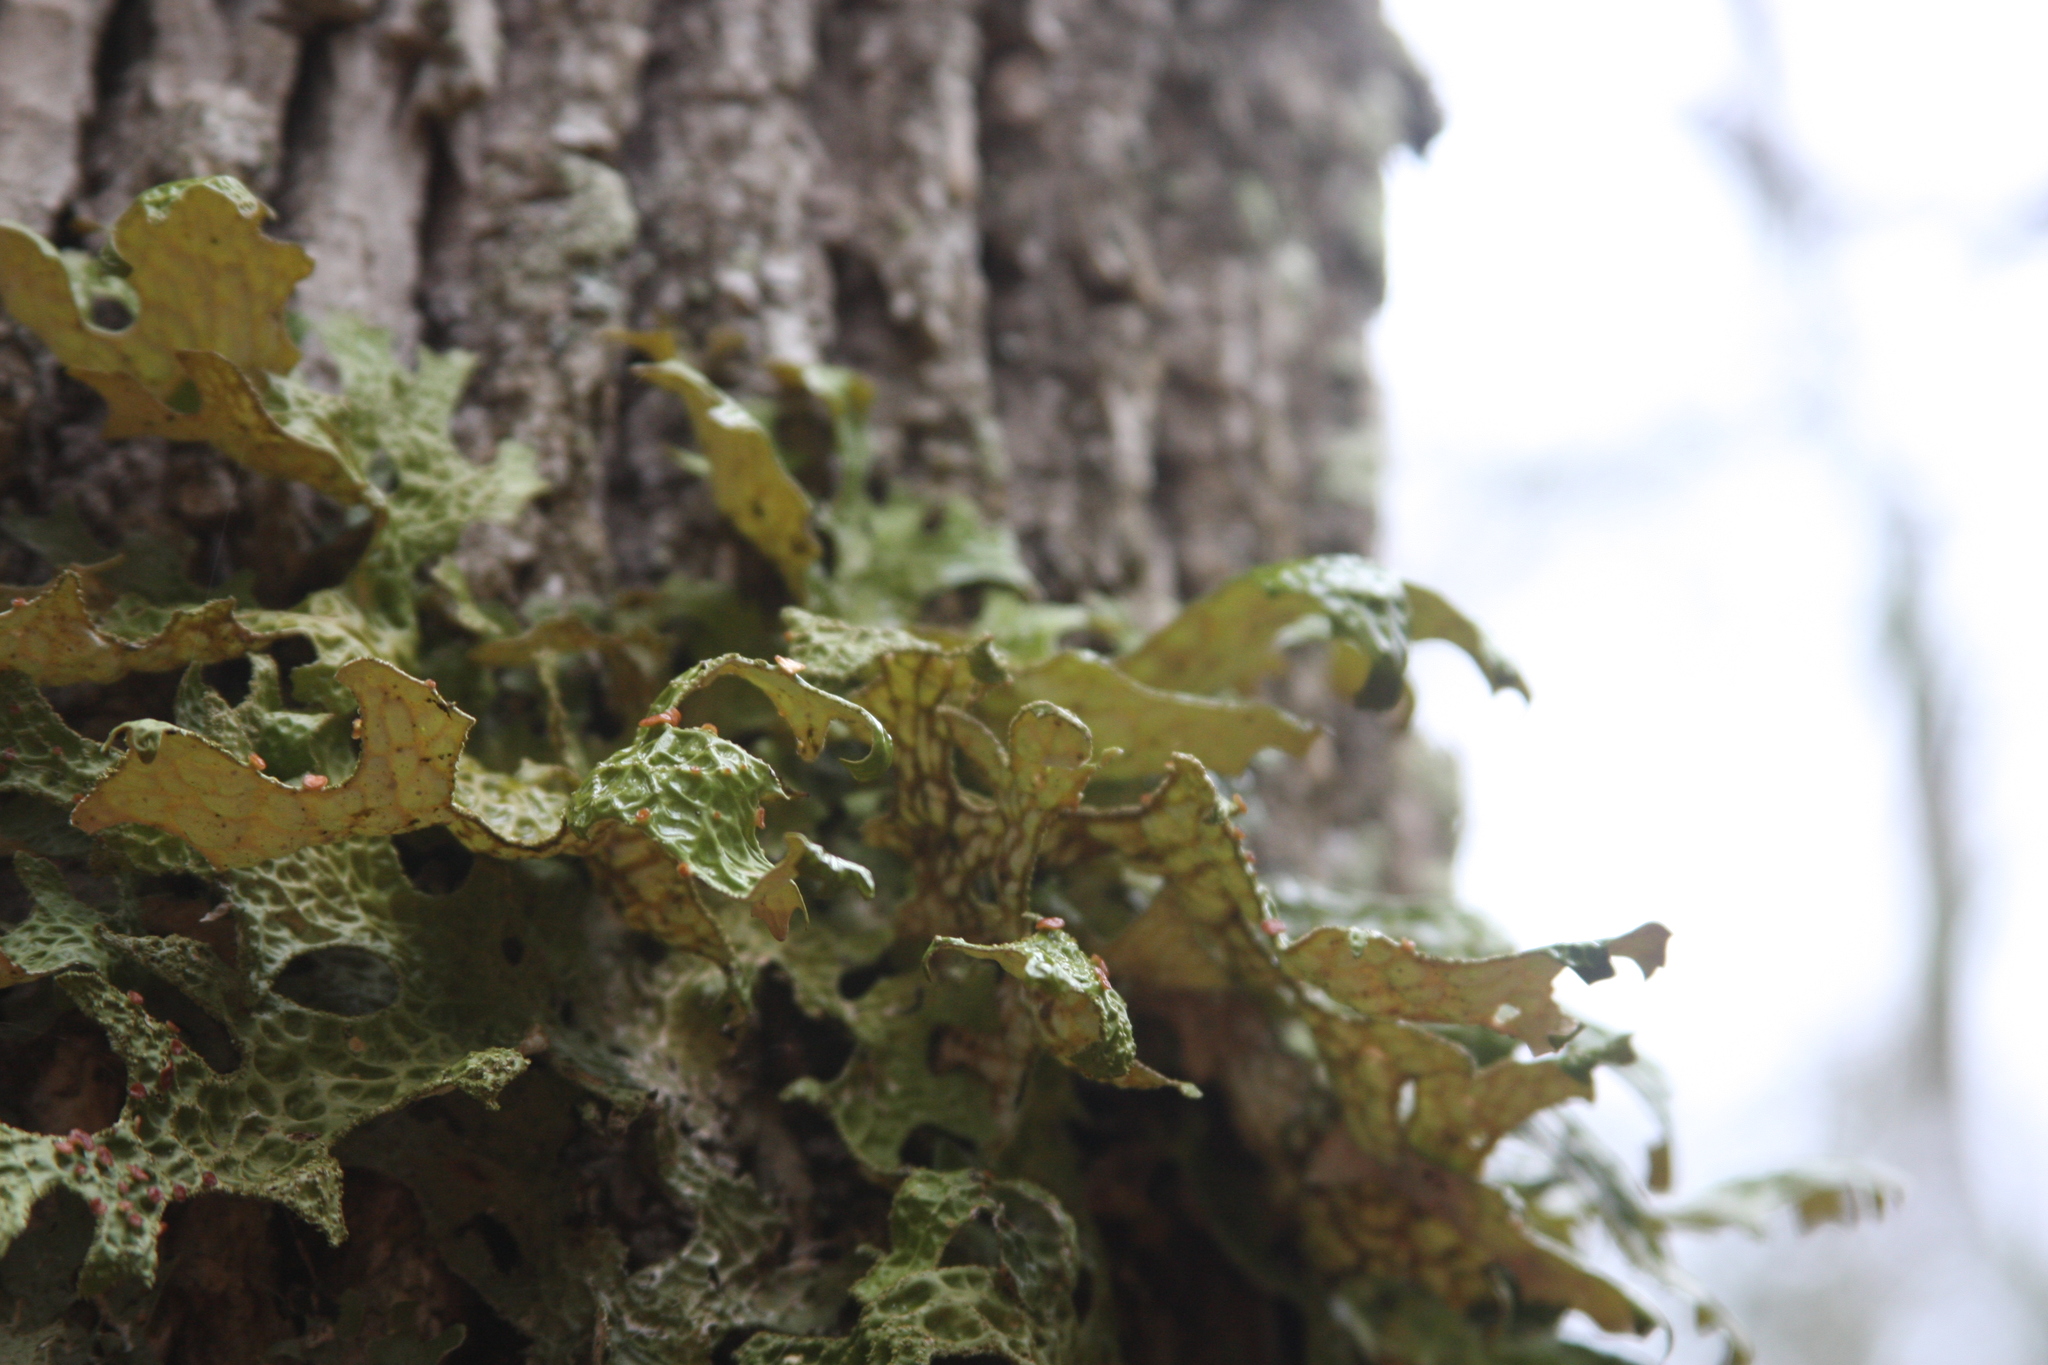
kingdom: Fungi
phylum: Ascomycota
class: Lecanoromycetes
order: Peltigerales
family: Lobariaceae
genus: Lobaria
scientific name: Lobaria pulmonaria
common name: Lungwort
